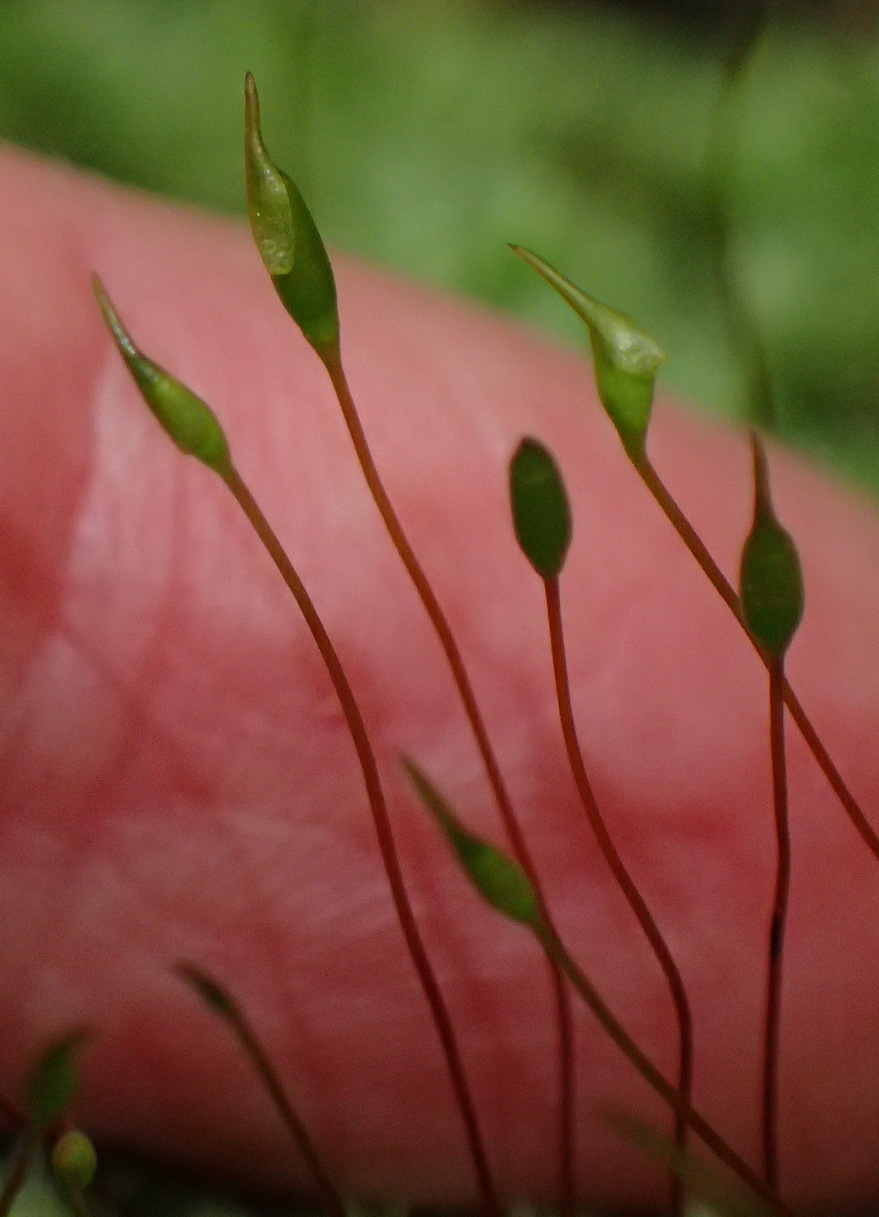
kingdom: Plantae
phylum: Bryophyta
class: Bryopsida
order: Hypnales
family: Brachytheciaceae
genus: Palamocladium
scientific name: Palamocladium leskeoides
